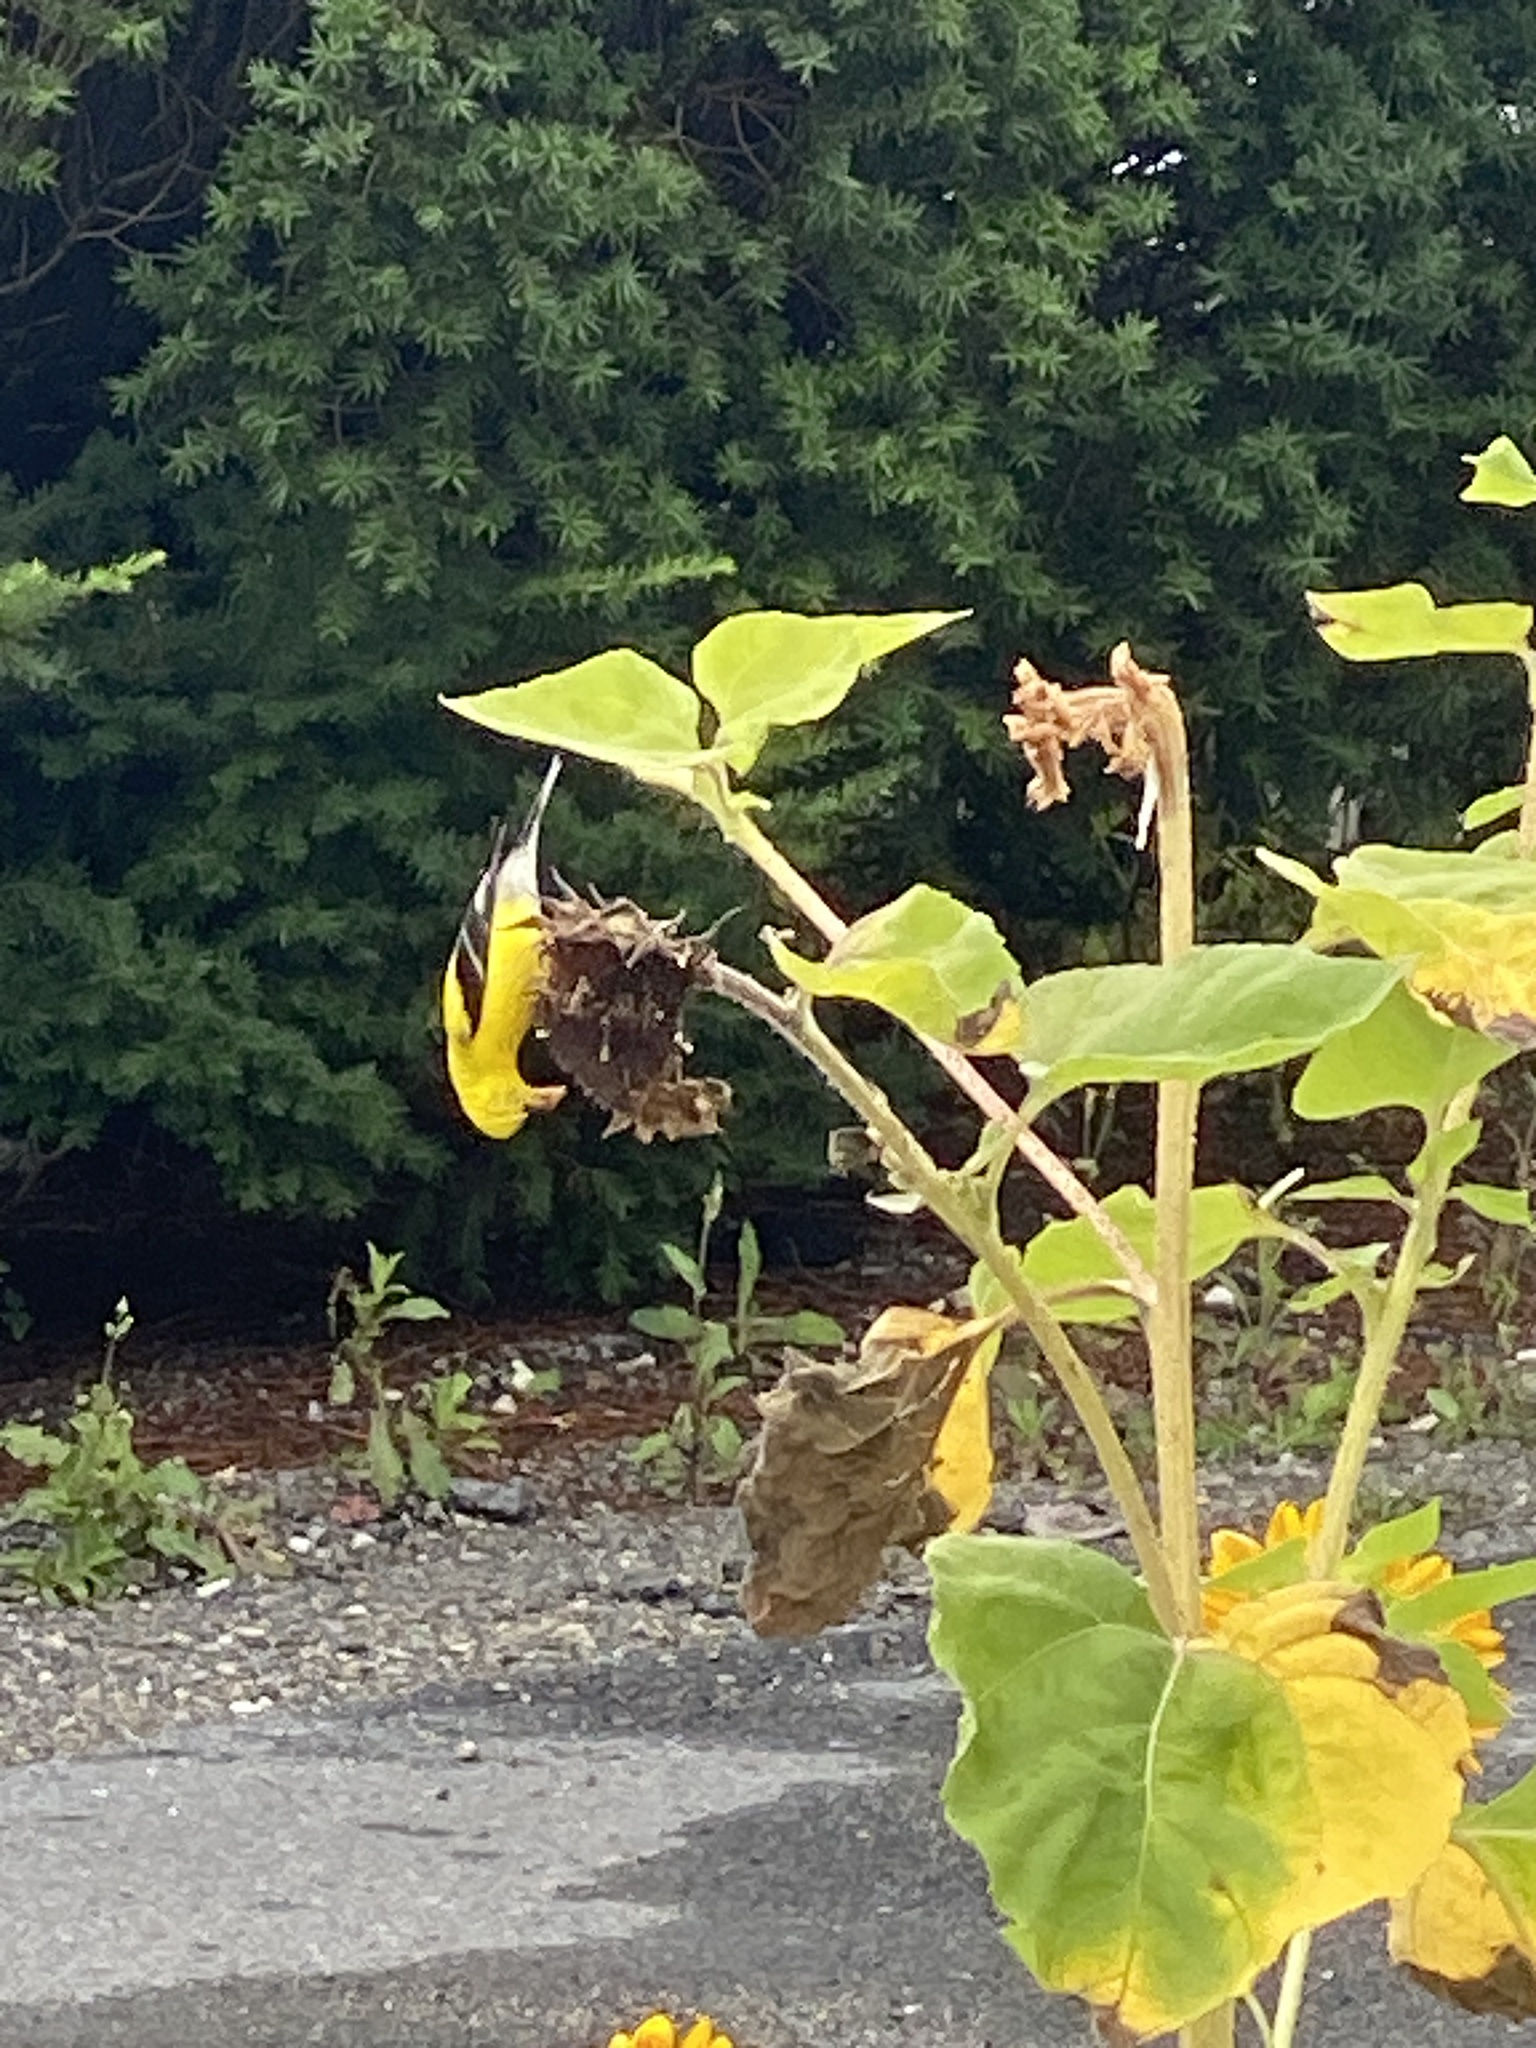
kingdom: Animalia
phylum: Chordata
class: Aves
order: Passeriformes
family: Fringillidae
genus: Spinus
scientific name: Spinus tristis
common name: American goldfinch
